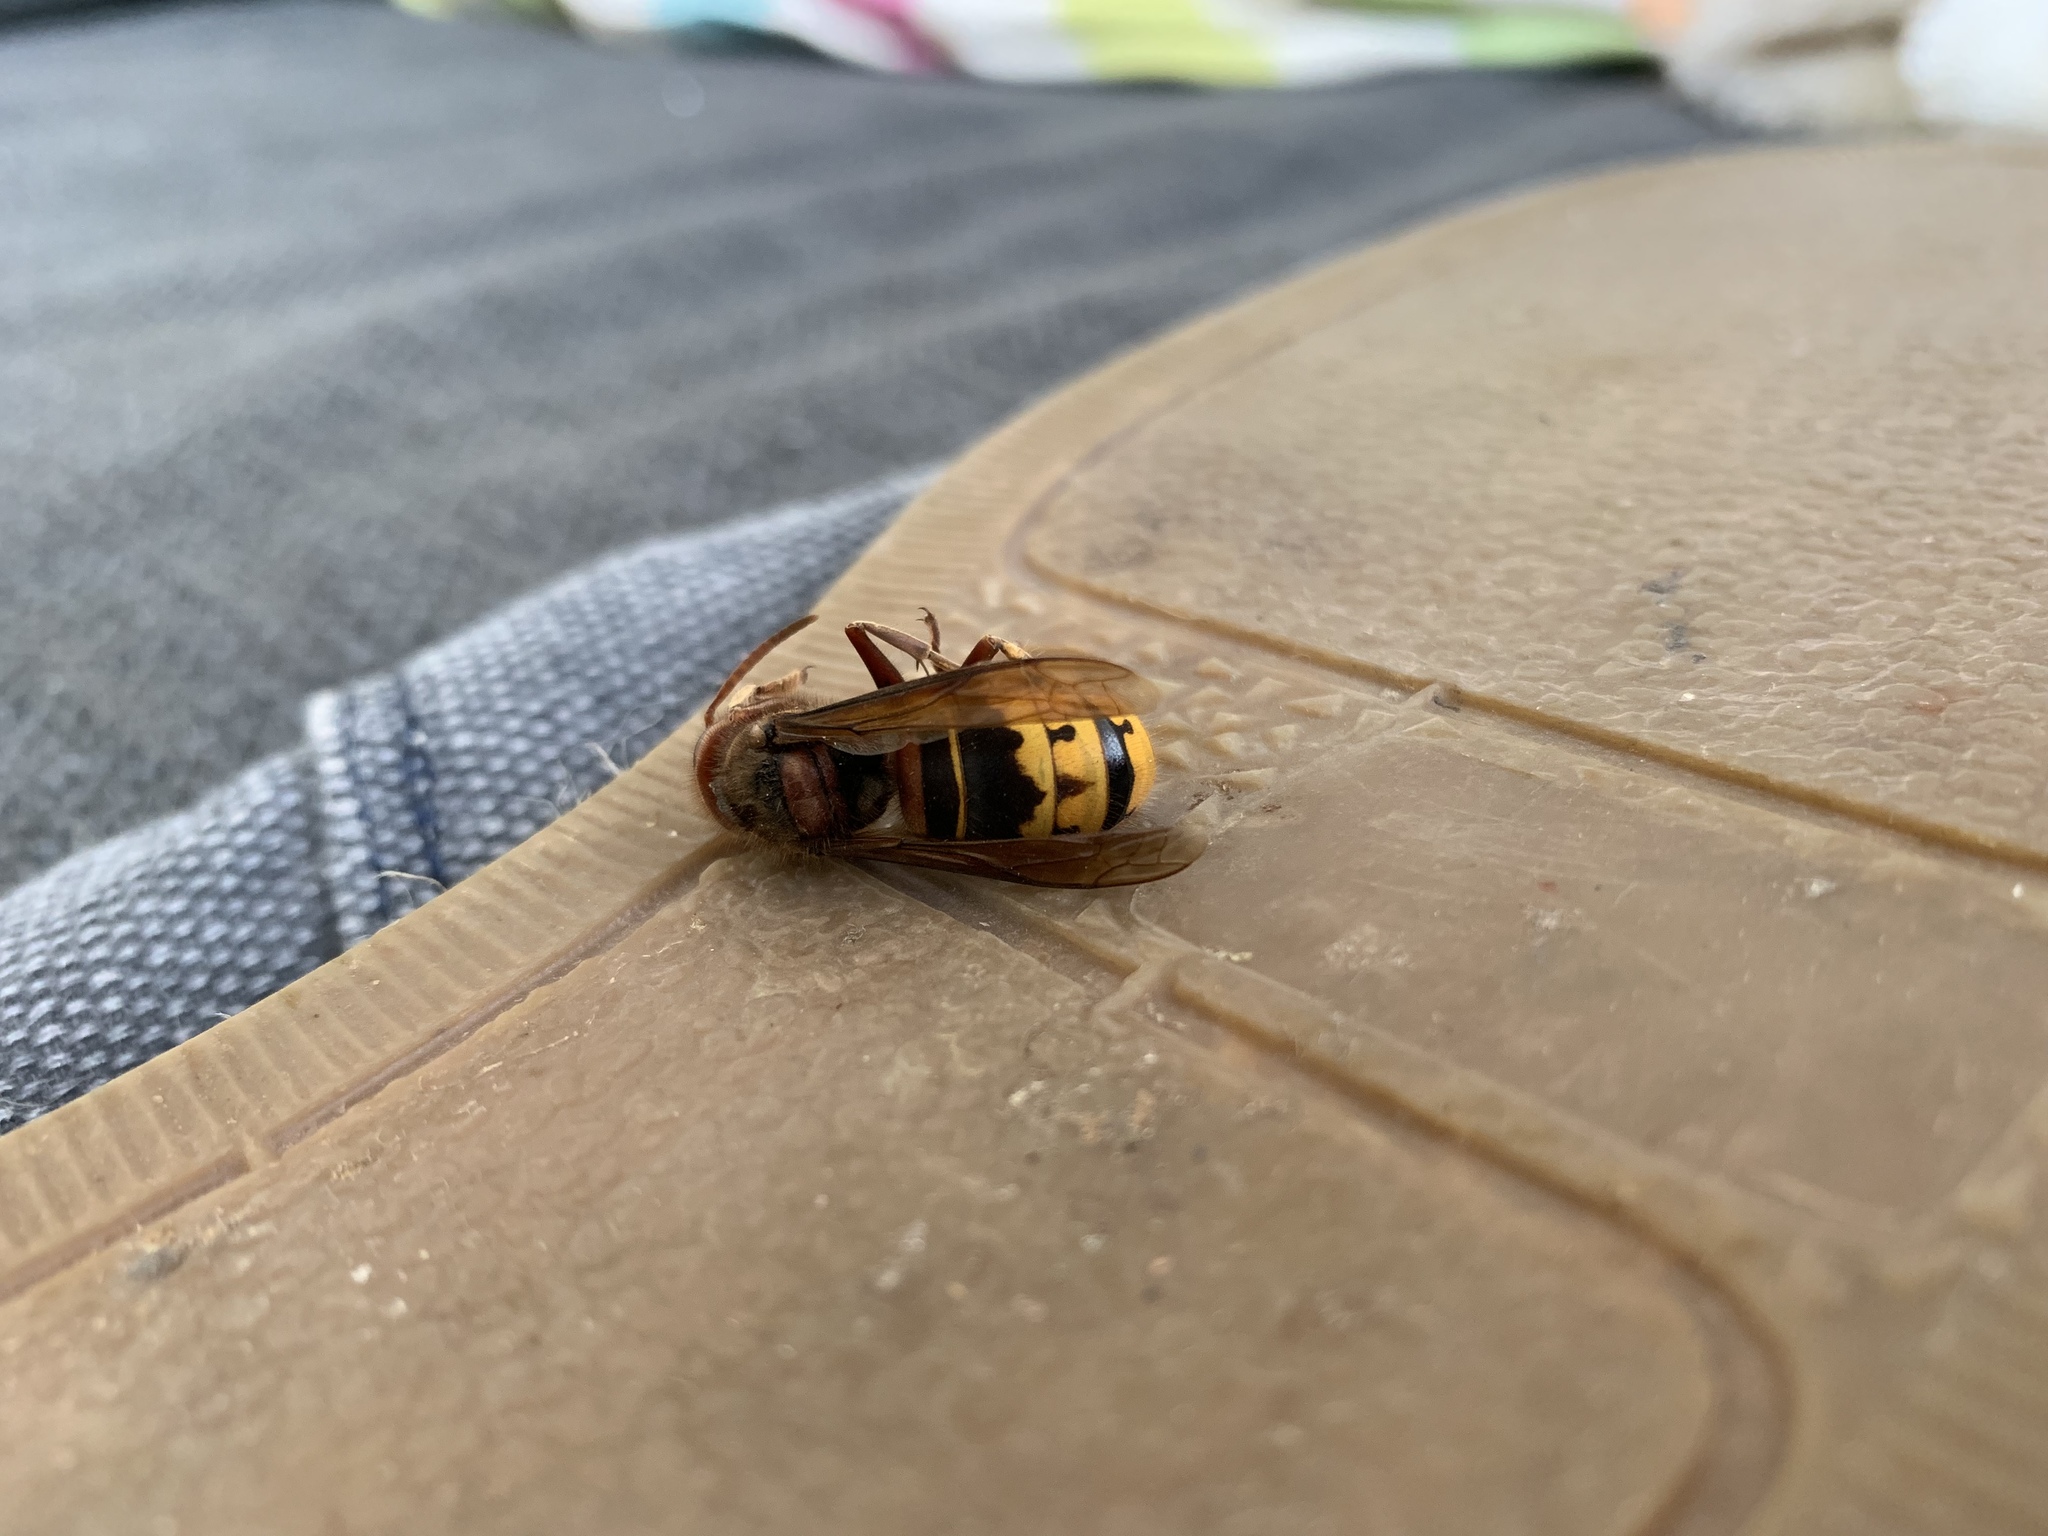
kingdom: Animalia
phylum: Arthropoda
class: Insecta
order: Hymenoptera
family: Vespidae
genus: Vespa
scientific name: Vespa crabro
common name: Hornet
